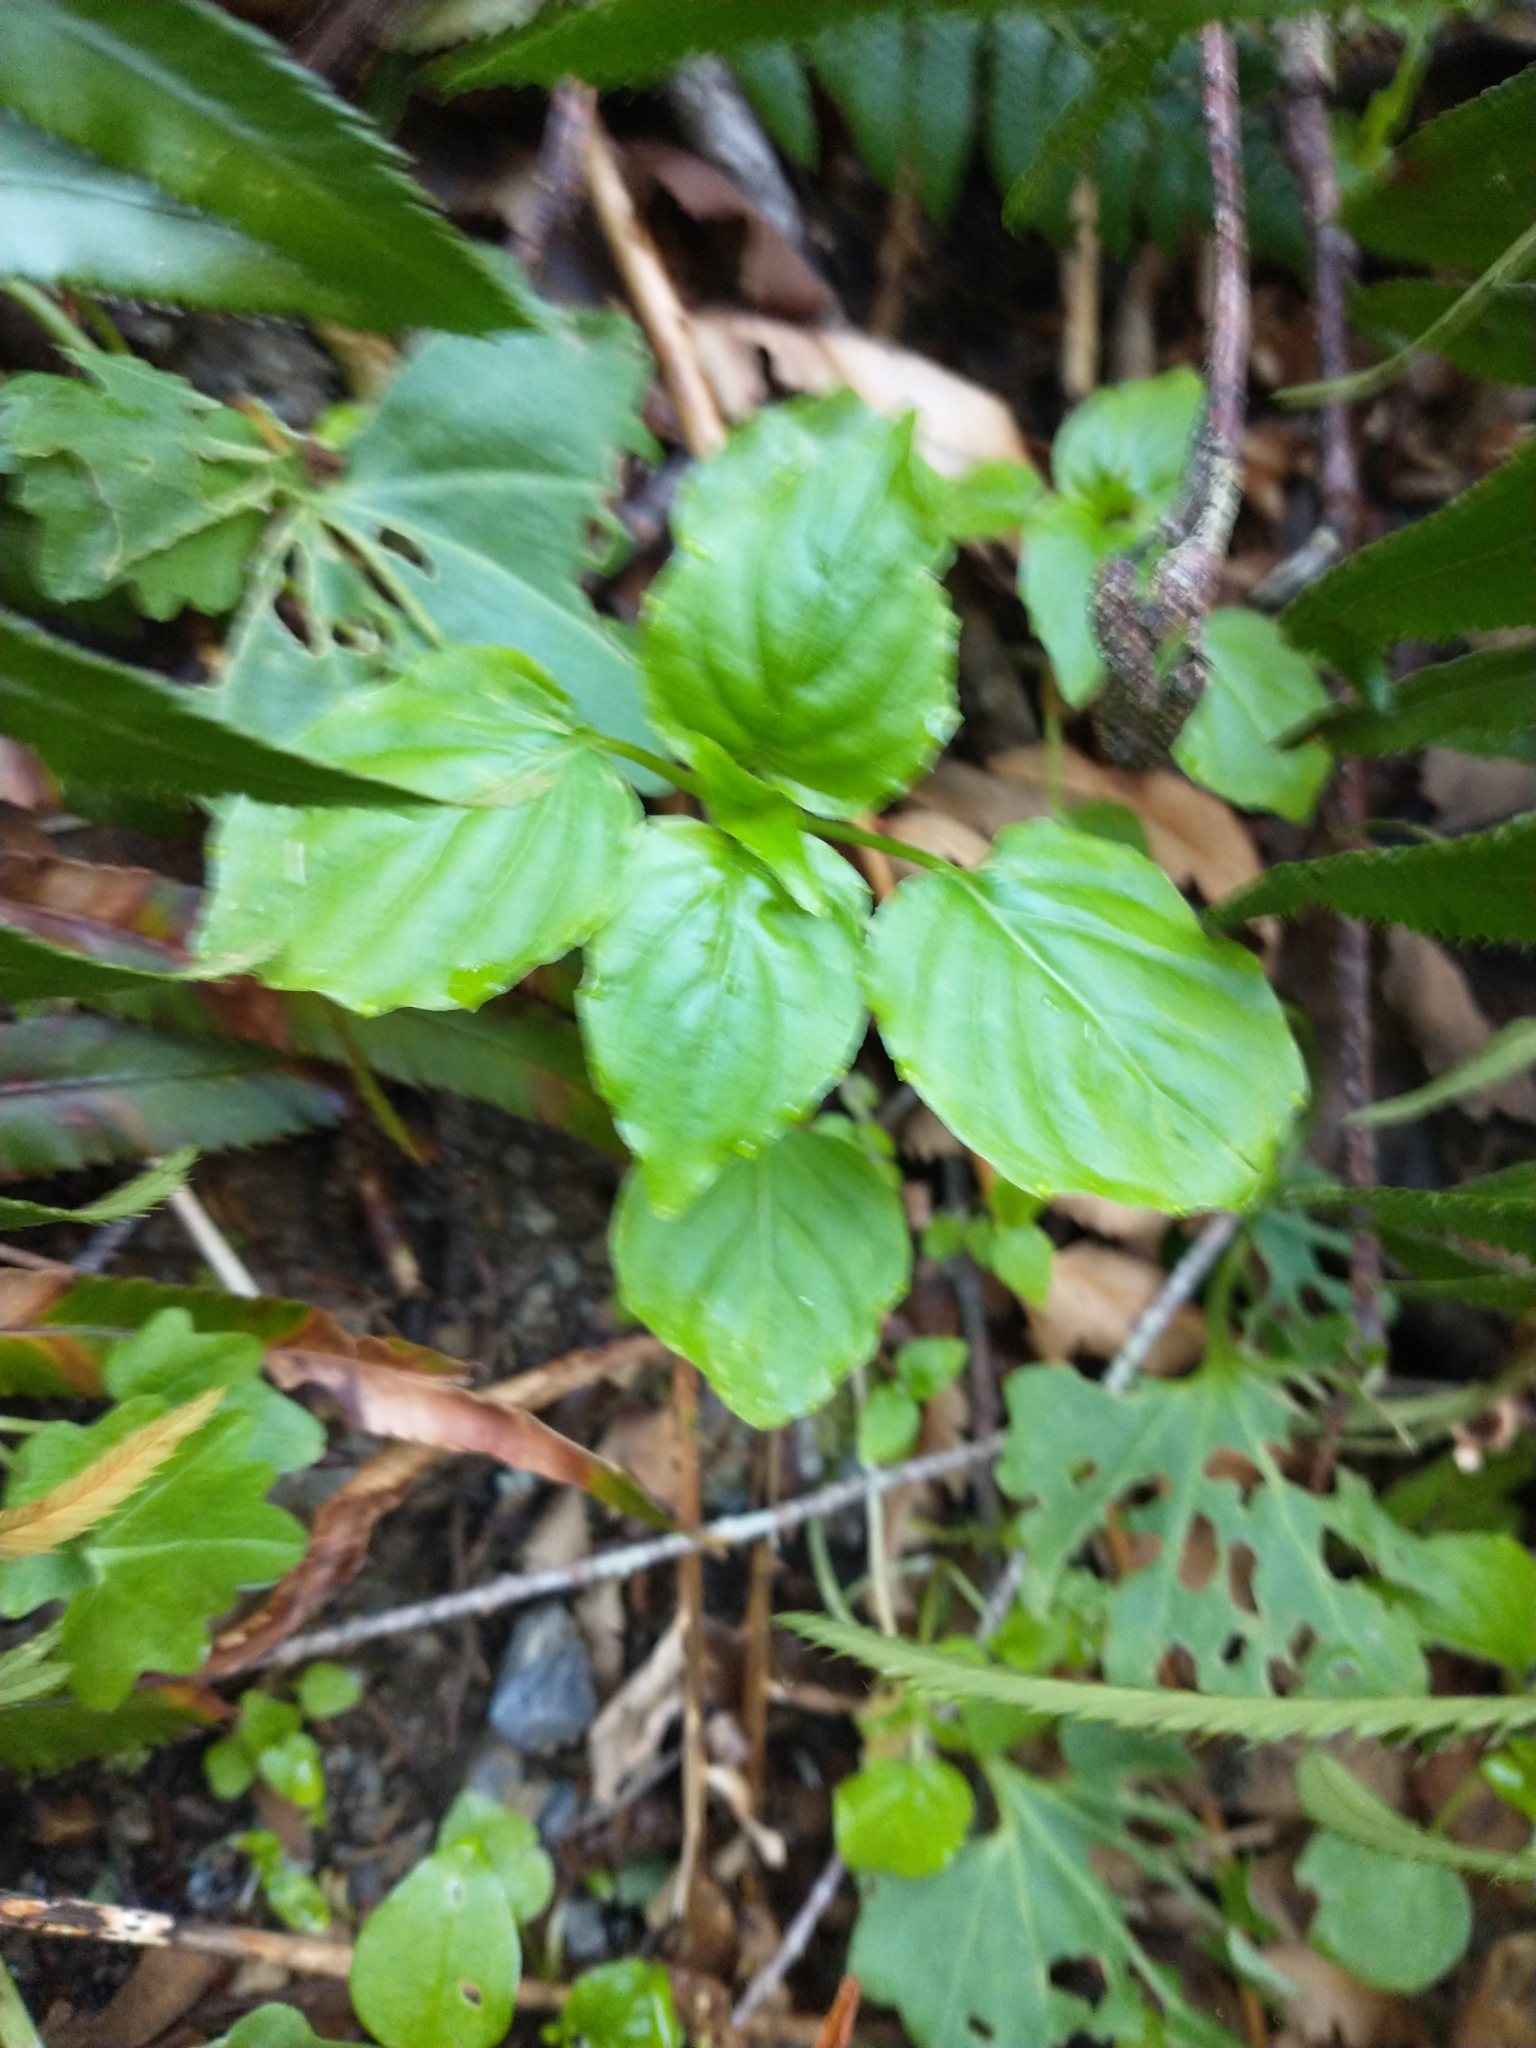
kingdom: Plantae
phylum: Tracheophyta
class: Magnoliopsida
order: Myrtales
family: Onagraceae
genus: Circaea
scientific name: Circaea alpina
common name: Alpine enchanter's-nightshade
